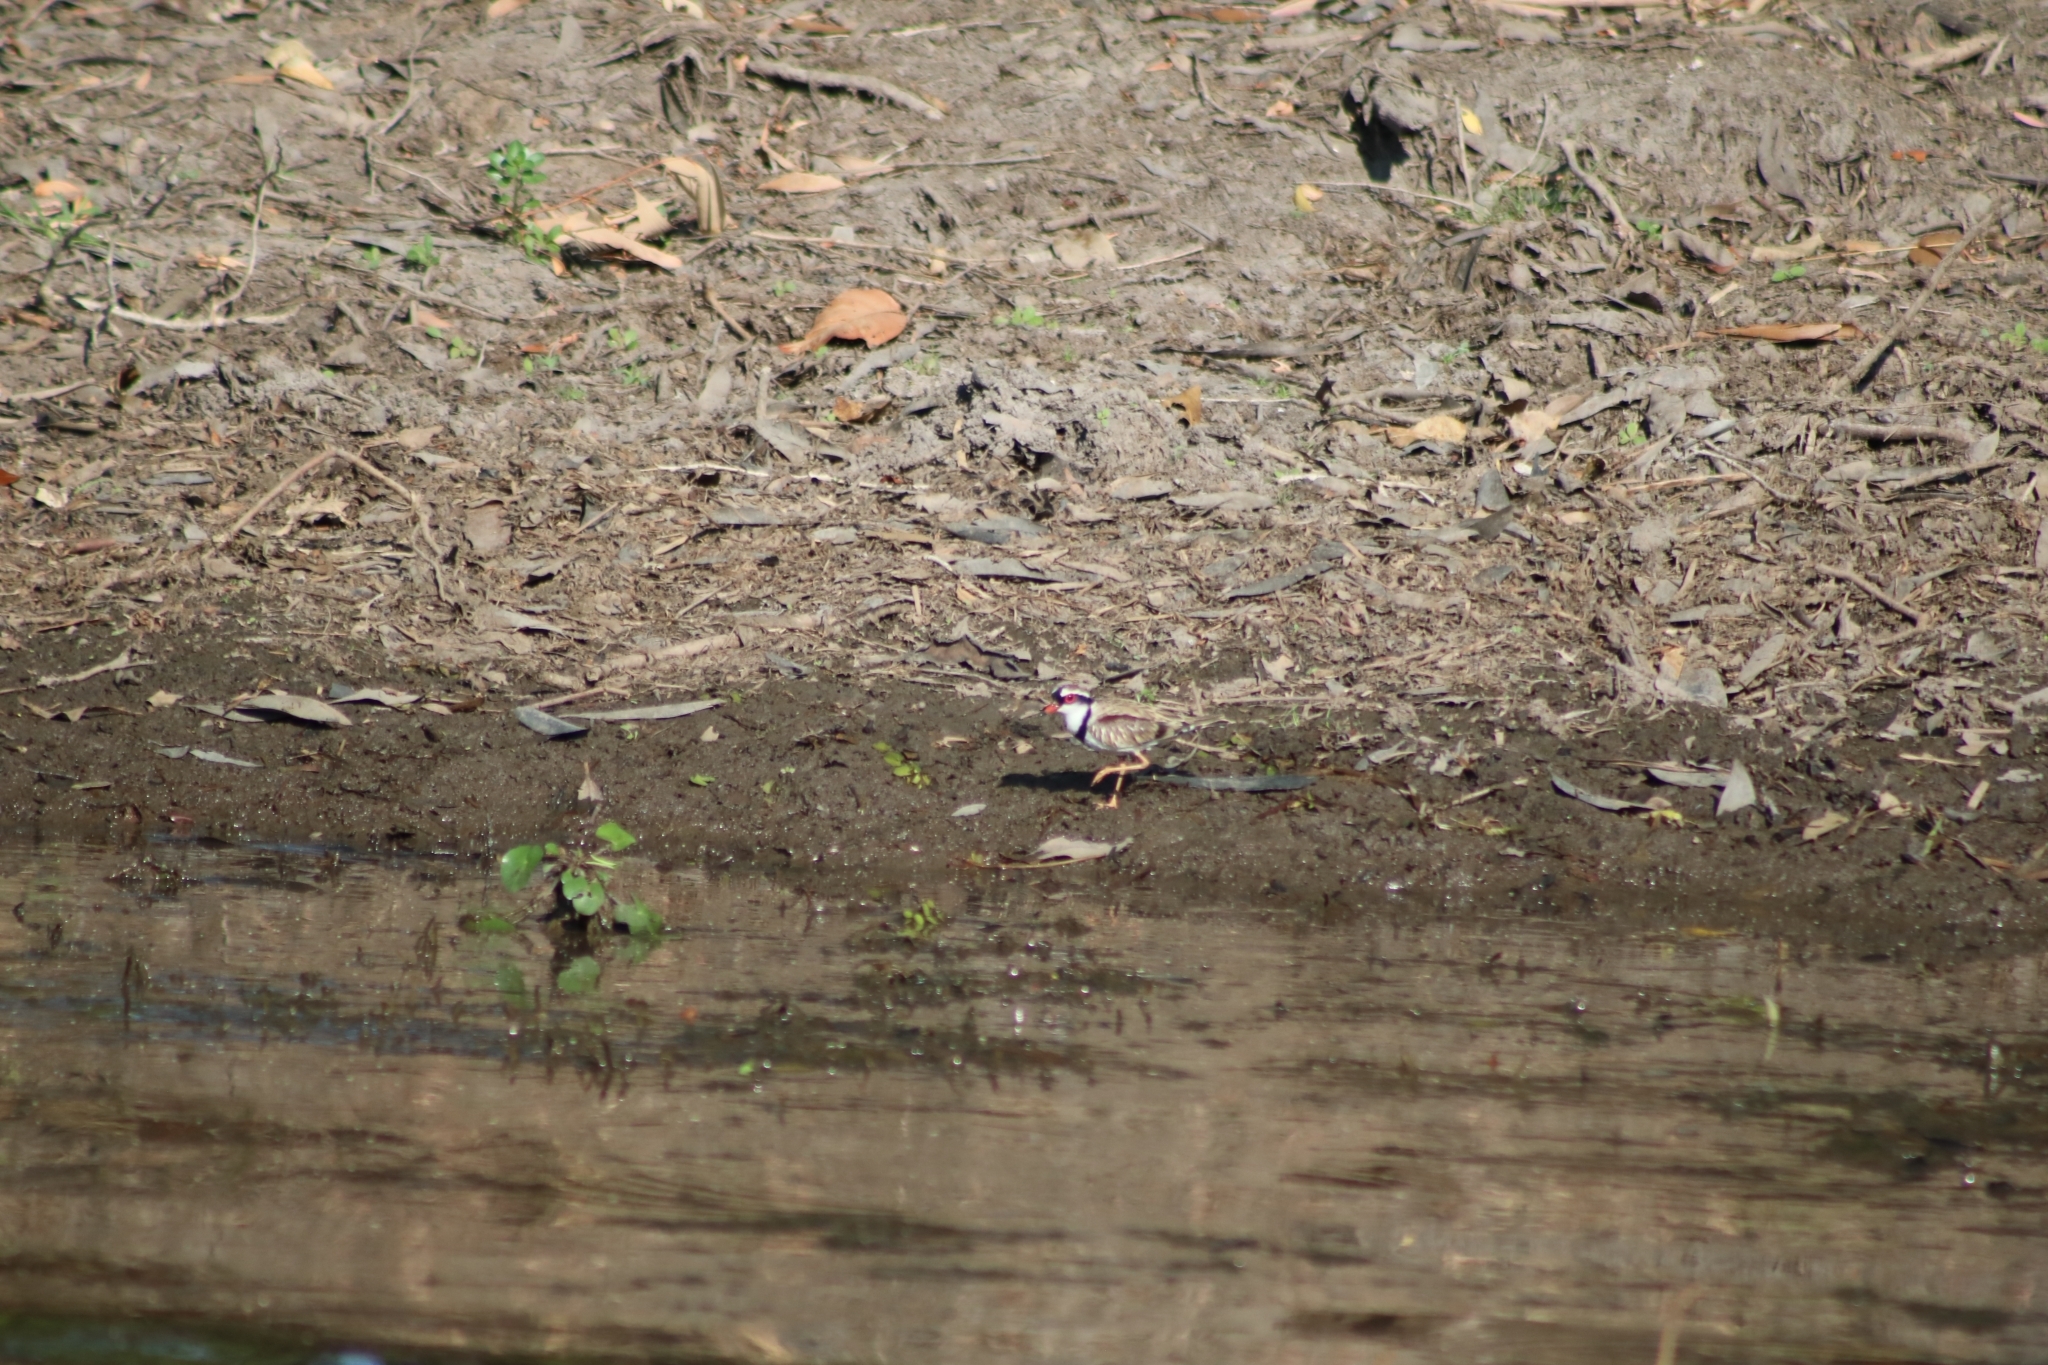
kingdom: Animalia
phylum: Chordata
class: Aves
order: Charadriiformes
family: Charadriidae
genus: Elseyornis
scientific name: Elseyornis melanops
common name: Black-fronted dotterel
